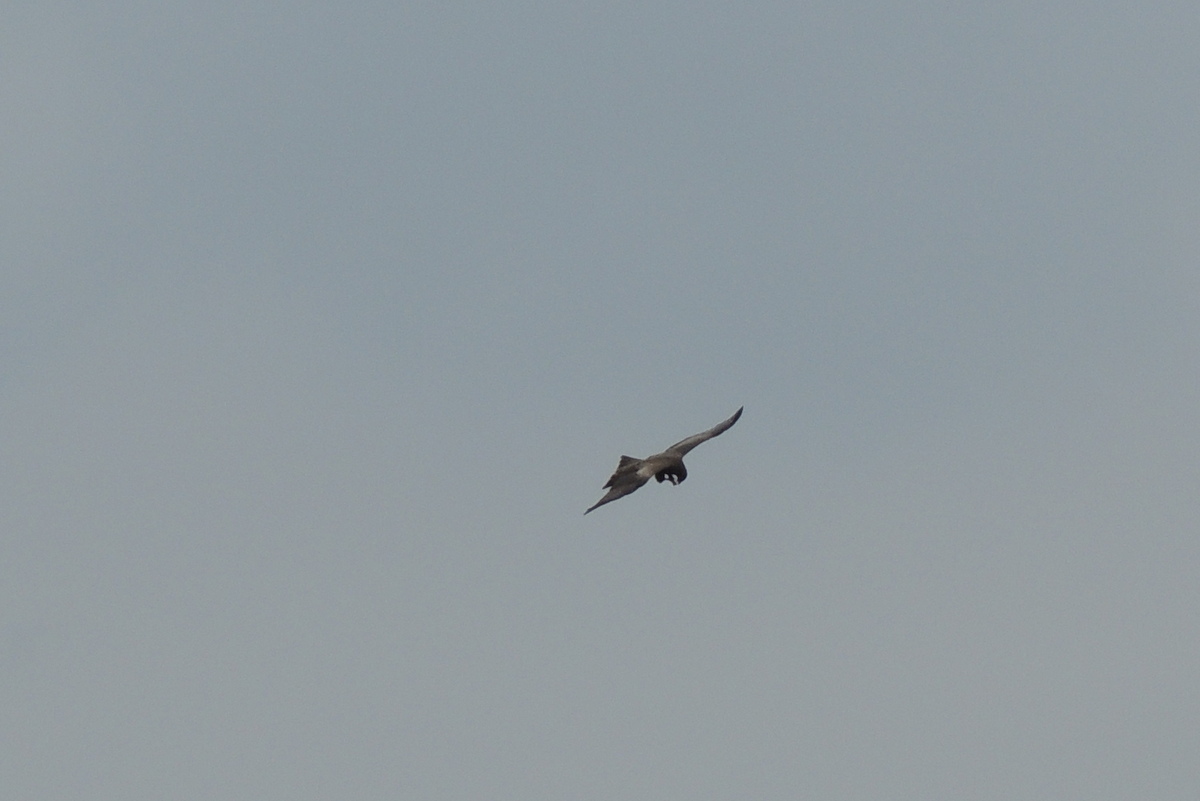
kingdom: Animalia
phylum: Chordata
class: Aves
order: Accipitriformes
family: Accipitridae
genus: Milvus
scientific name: Milvus migrans
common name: Black kite
